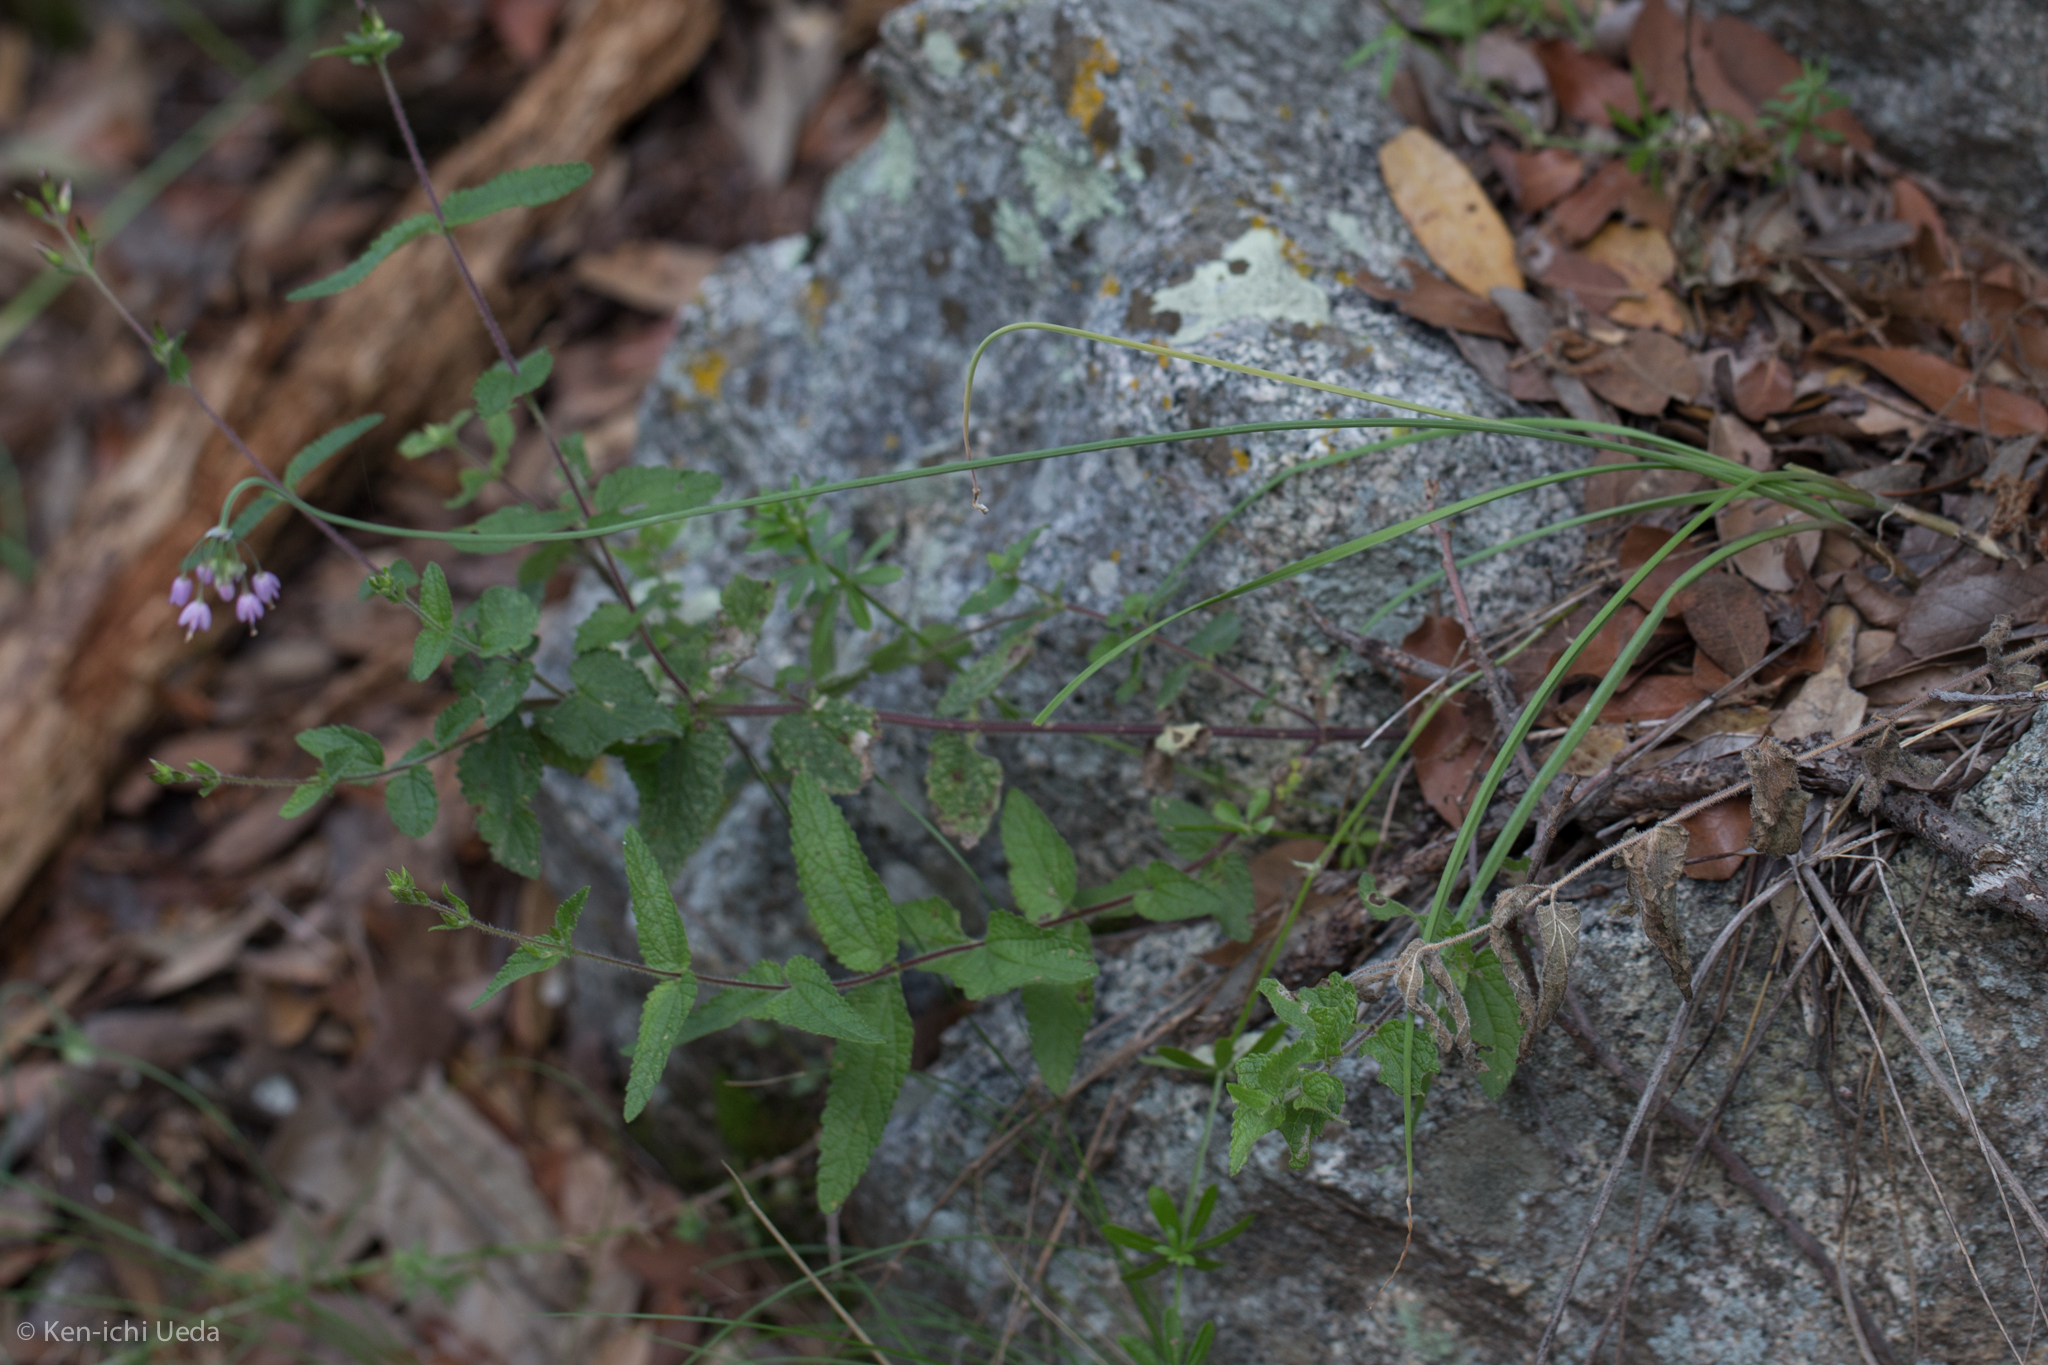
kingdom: Plantae
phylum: Tracheophyta
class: Liliopsida
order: Asparagales
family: Amaryllidaceae
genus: Allium
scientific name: Allium cernuum
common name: Nodding onion
